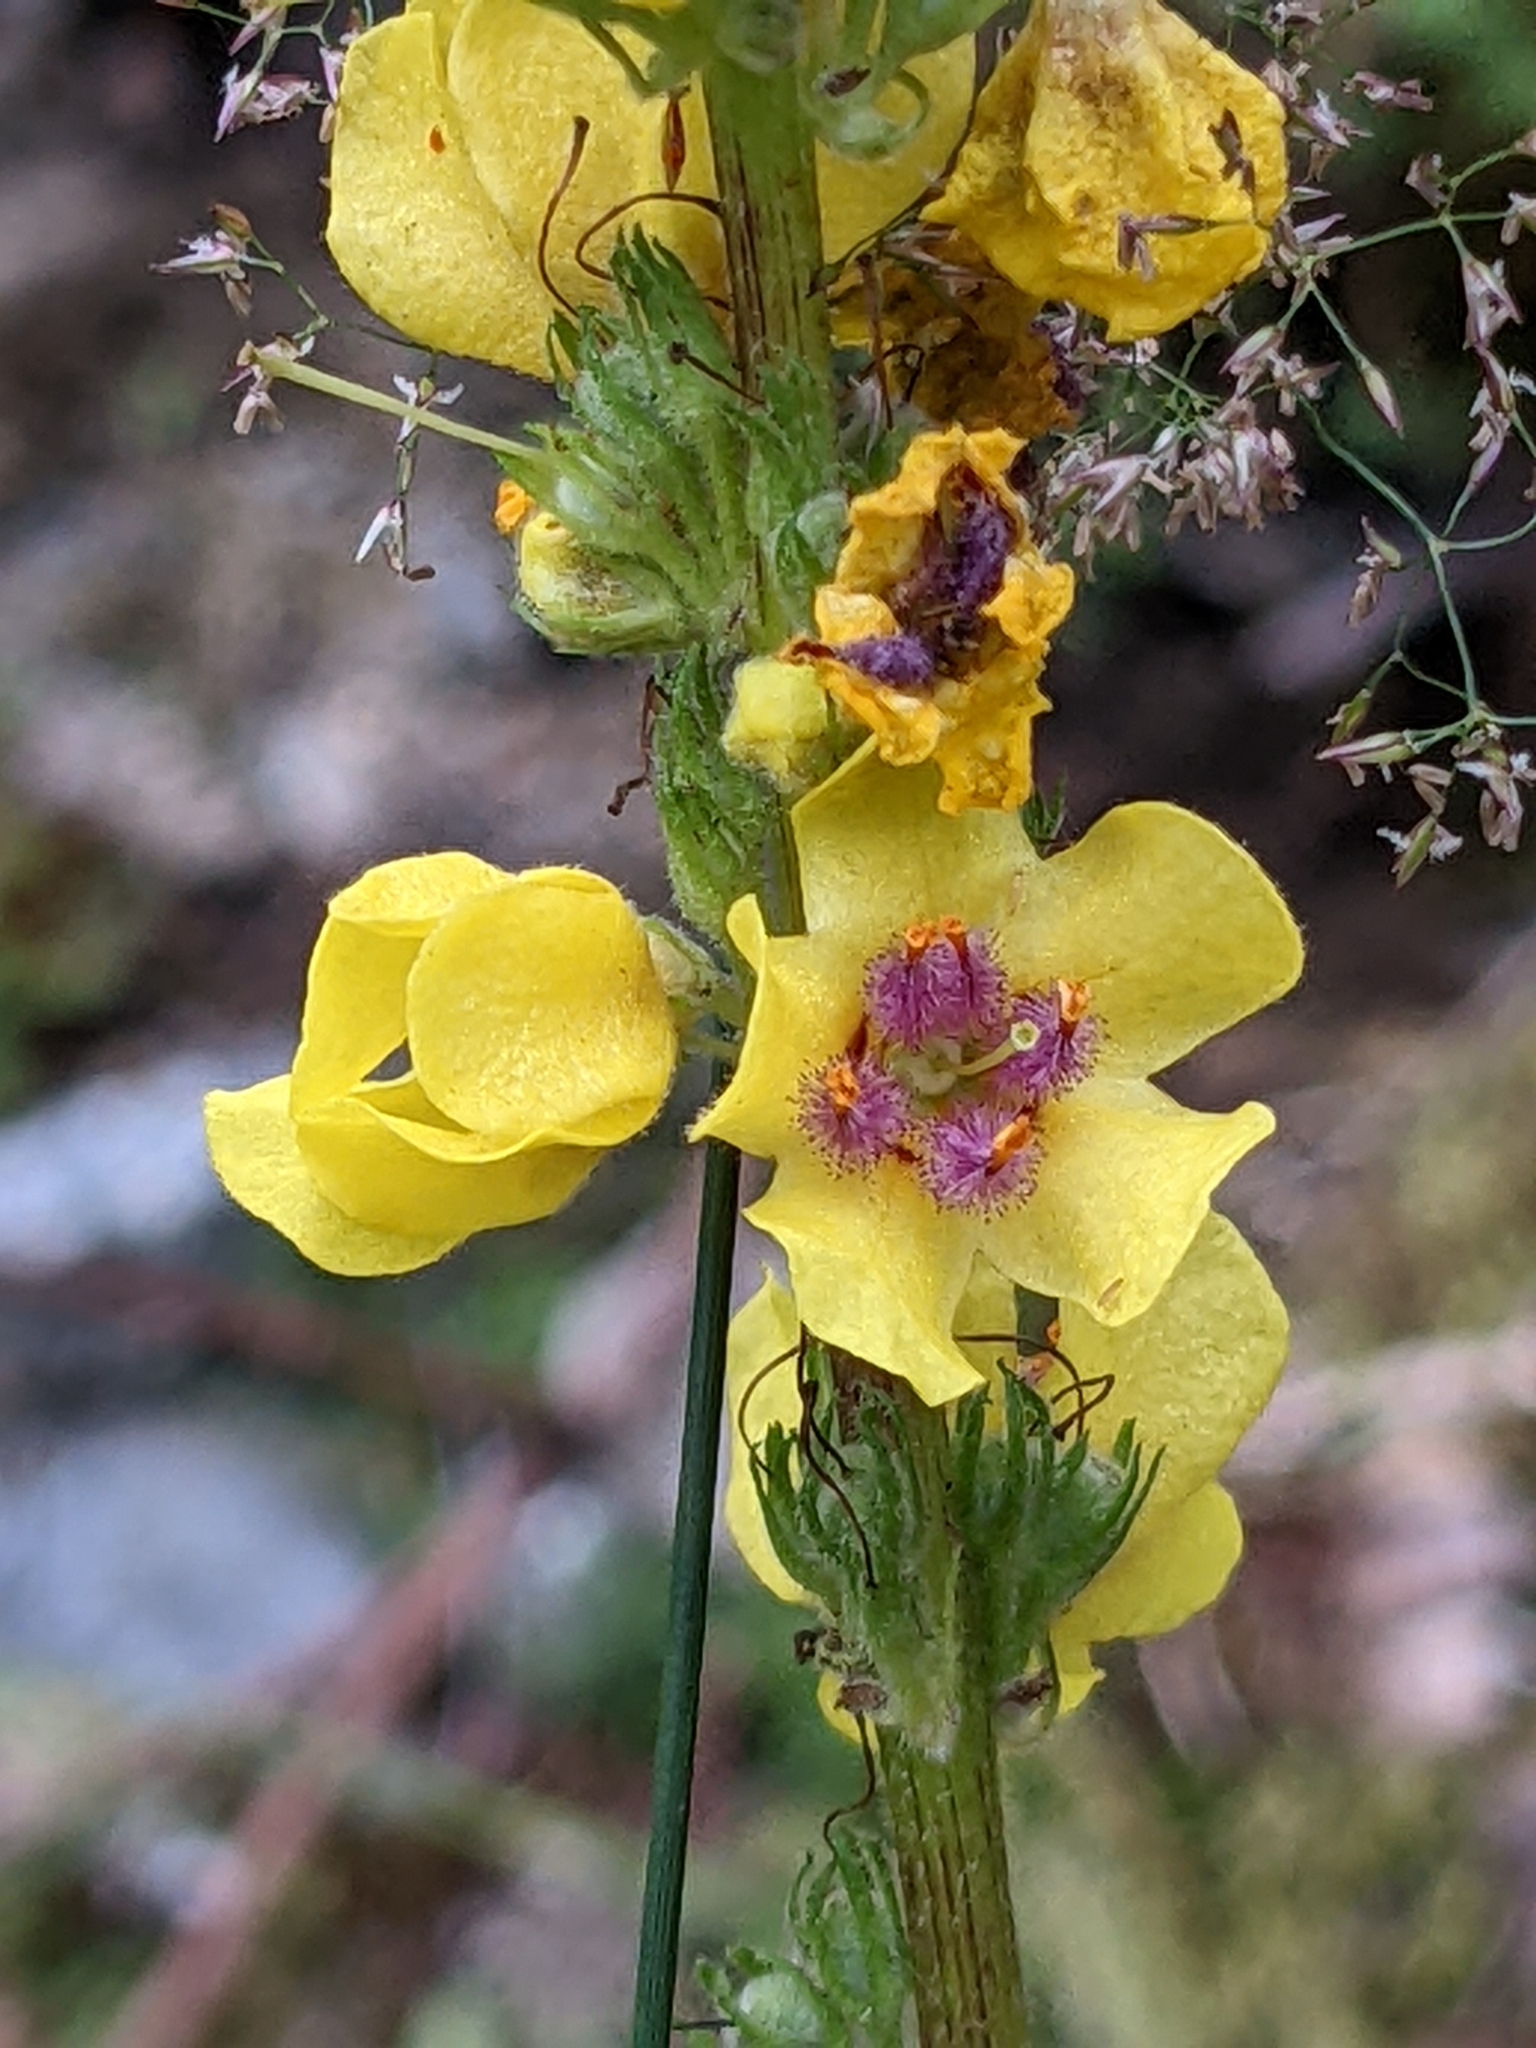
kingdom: Plantae
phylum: Tracheophyta
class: Magnoliopsida
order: Lamiales
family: Scrophulariaceae
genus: Verbascum
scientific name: Verbascum nigrum
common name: Dark mullein
